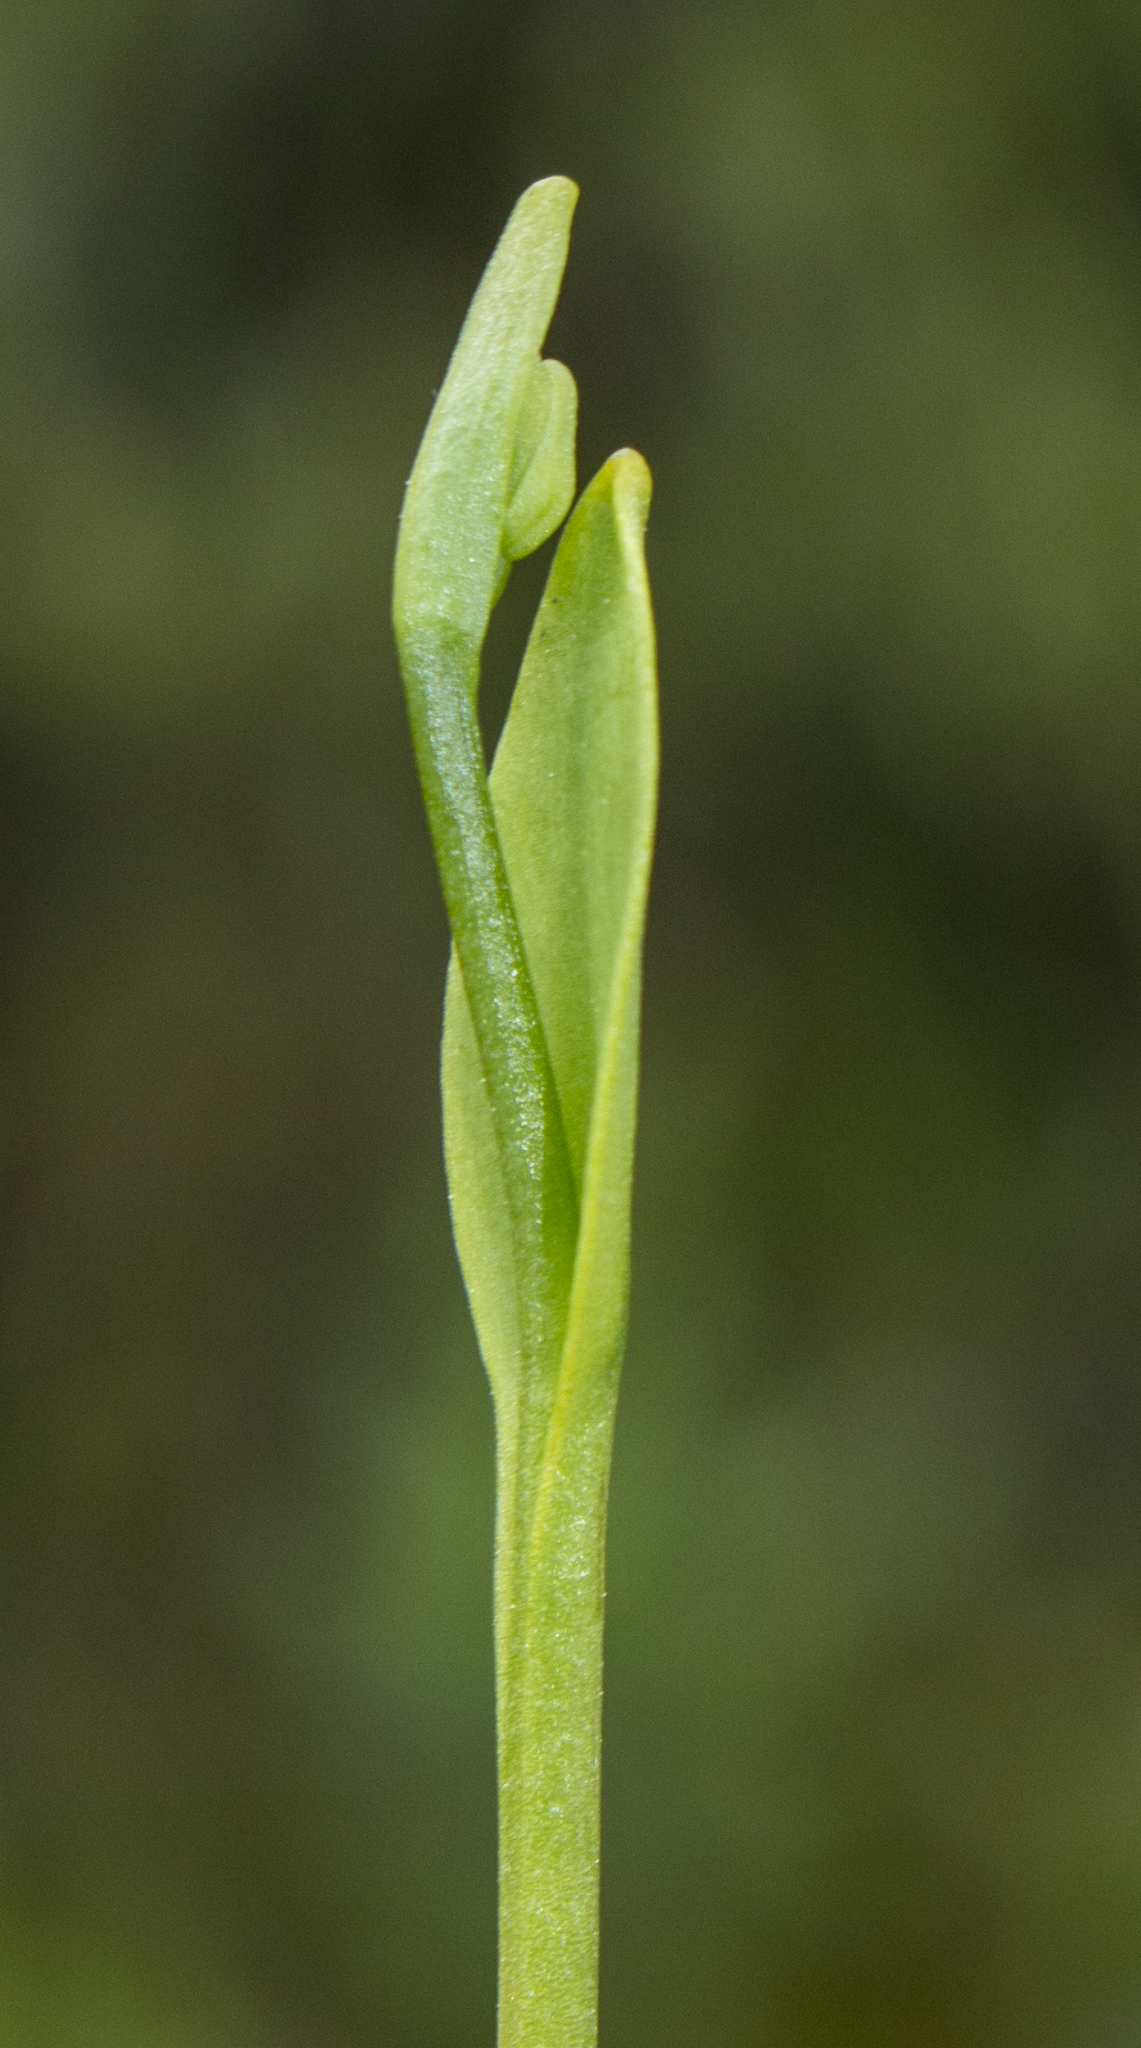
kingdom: Plantae
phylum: Tracheophyta
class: Liliopsida
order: Asparagales
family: Orchidaceae
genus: Pogonia
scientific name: Pogonia ophioglossoides
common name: Rose pogonia
